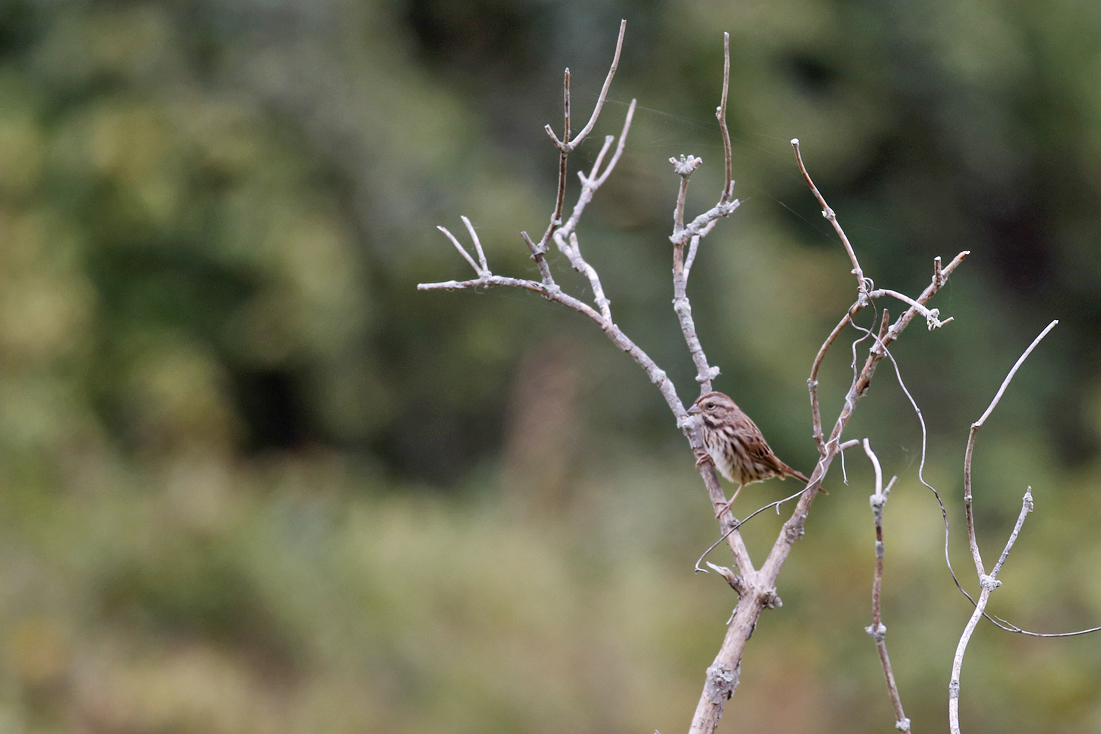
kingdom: Animalia
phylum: Chordata
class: Aves
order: Passeriformes
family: Passerellidae
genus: Melospiza
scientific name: Melospiza melodia
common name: Song sparrow
